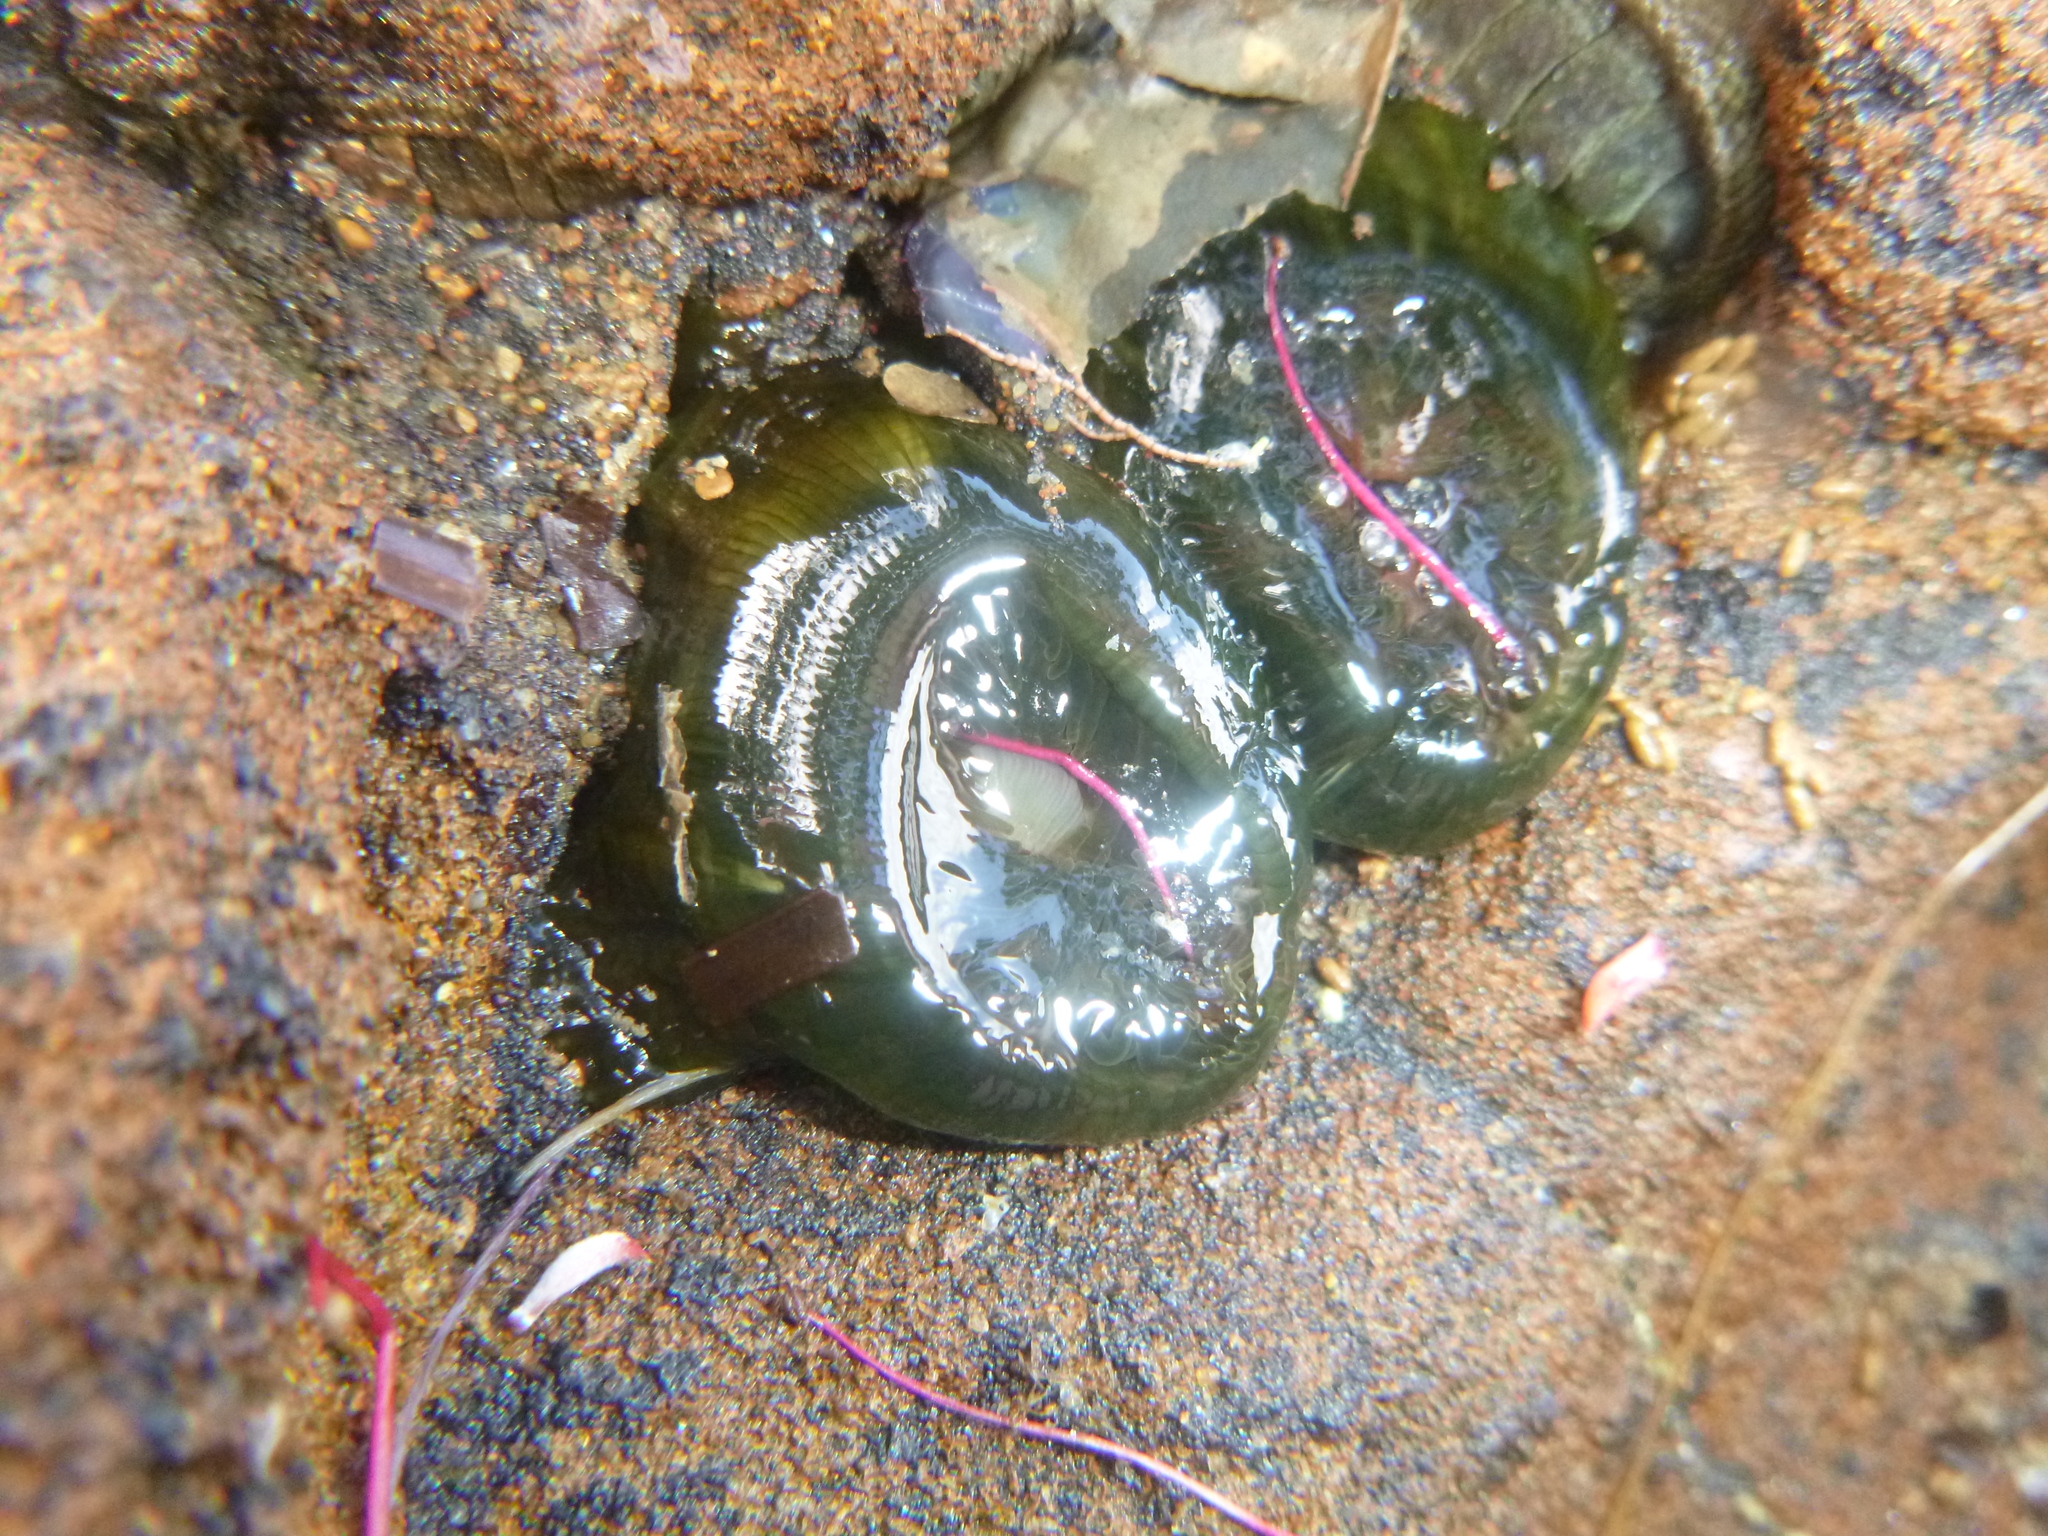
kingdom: Animalia
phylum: Cnidaria
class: Anthozoa
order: Actiniaria
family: Actiniidae
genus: Isactinia
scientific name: Isactinia olivacea
